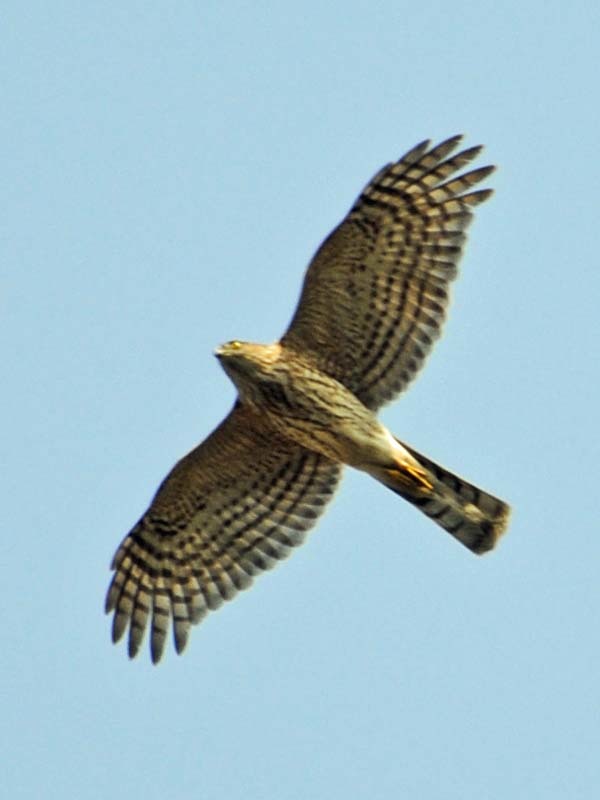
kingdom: Animalia
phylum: Chordata
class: Aves
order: Accipitriformes
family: Accipitridae
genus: Accipiter
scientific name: Accipiter striatus
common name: Sharp-shinned hawk
